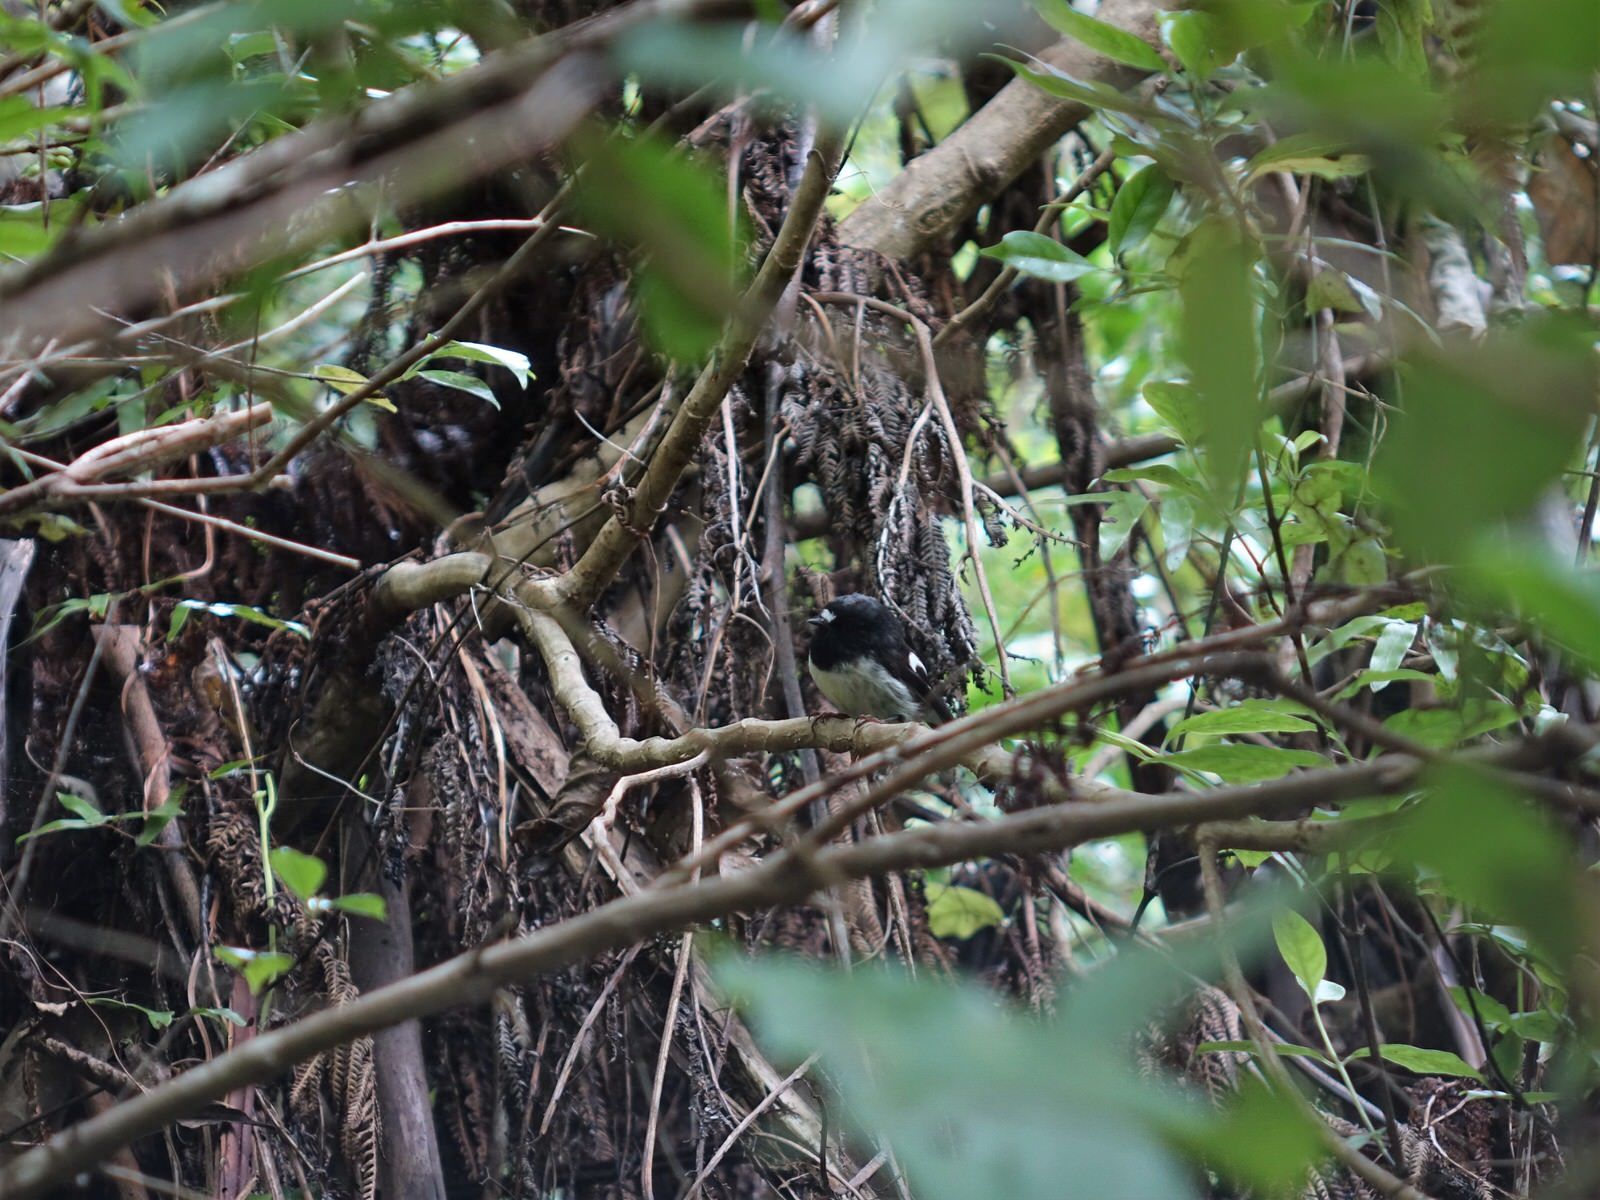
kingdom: Animalia
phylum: Chordata
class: Aves
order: Passeriformes
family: Petroicidae
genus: Petroica
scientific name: Petroica macrocephala
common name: Tomtit
